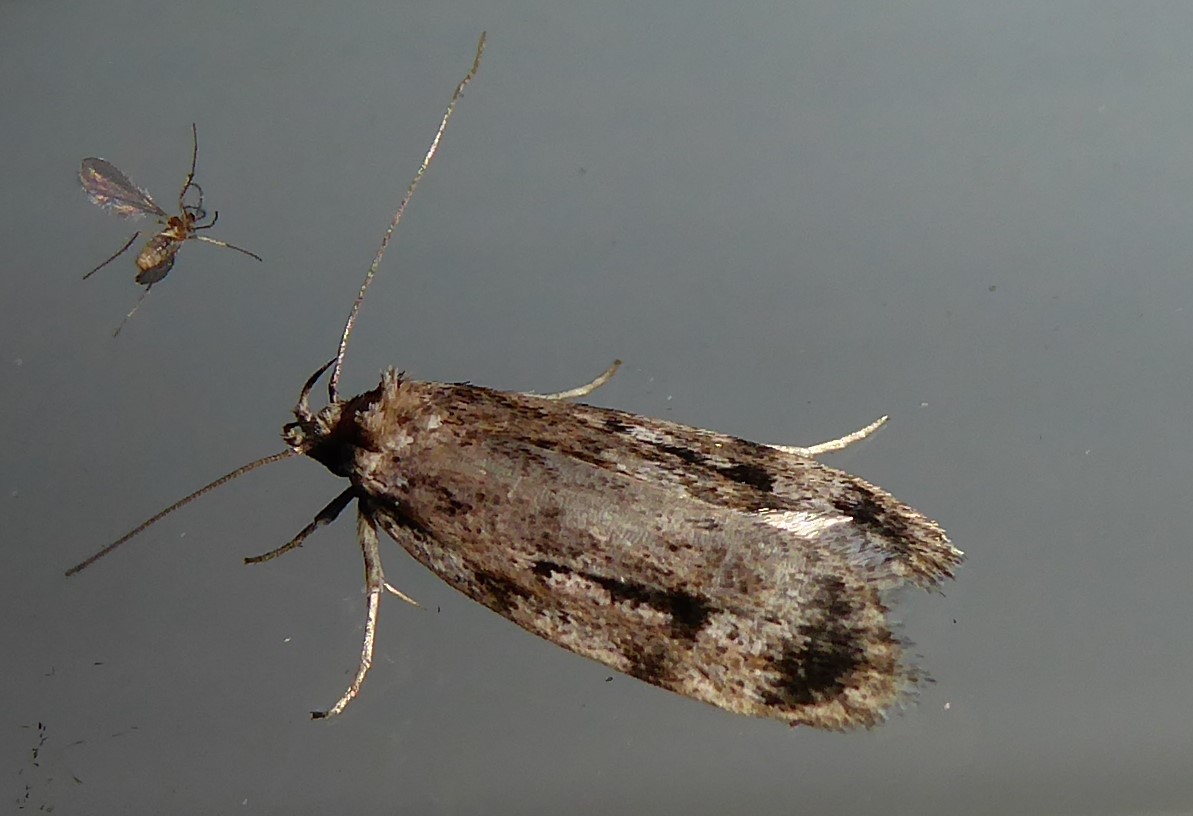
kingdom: Animalia
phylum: Arthropoda
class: Insecta
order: Lepidoptera
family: Oecophoridae
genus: Barea
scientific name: Barea exarcha
